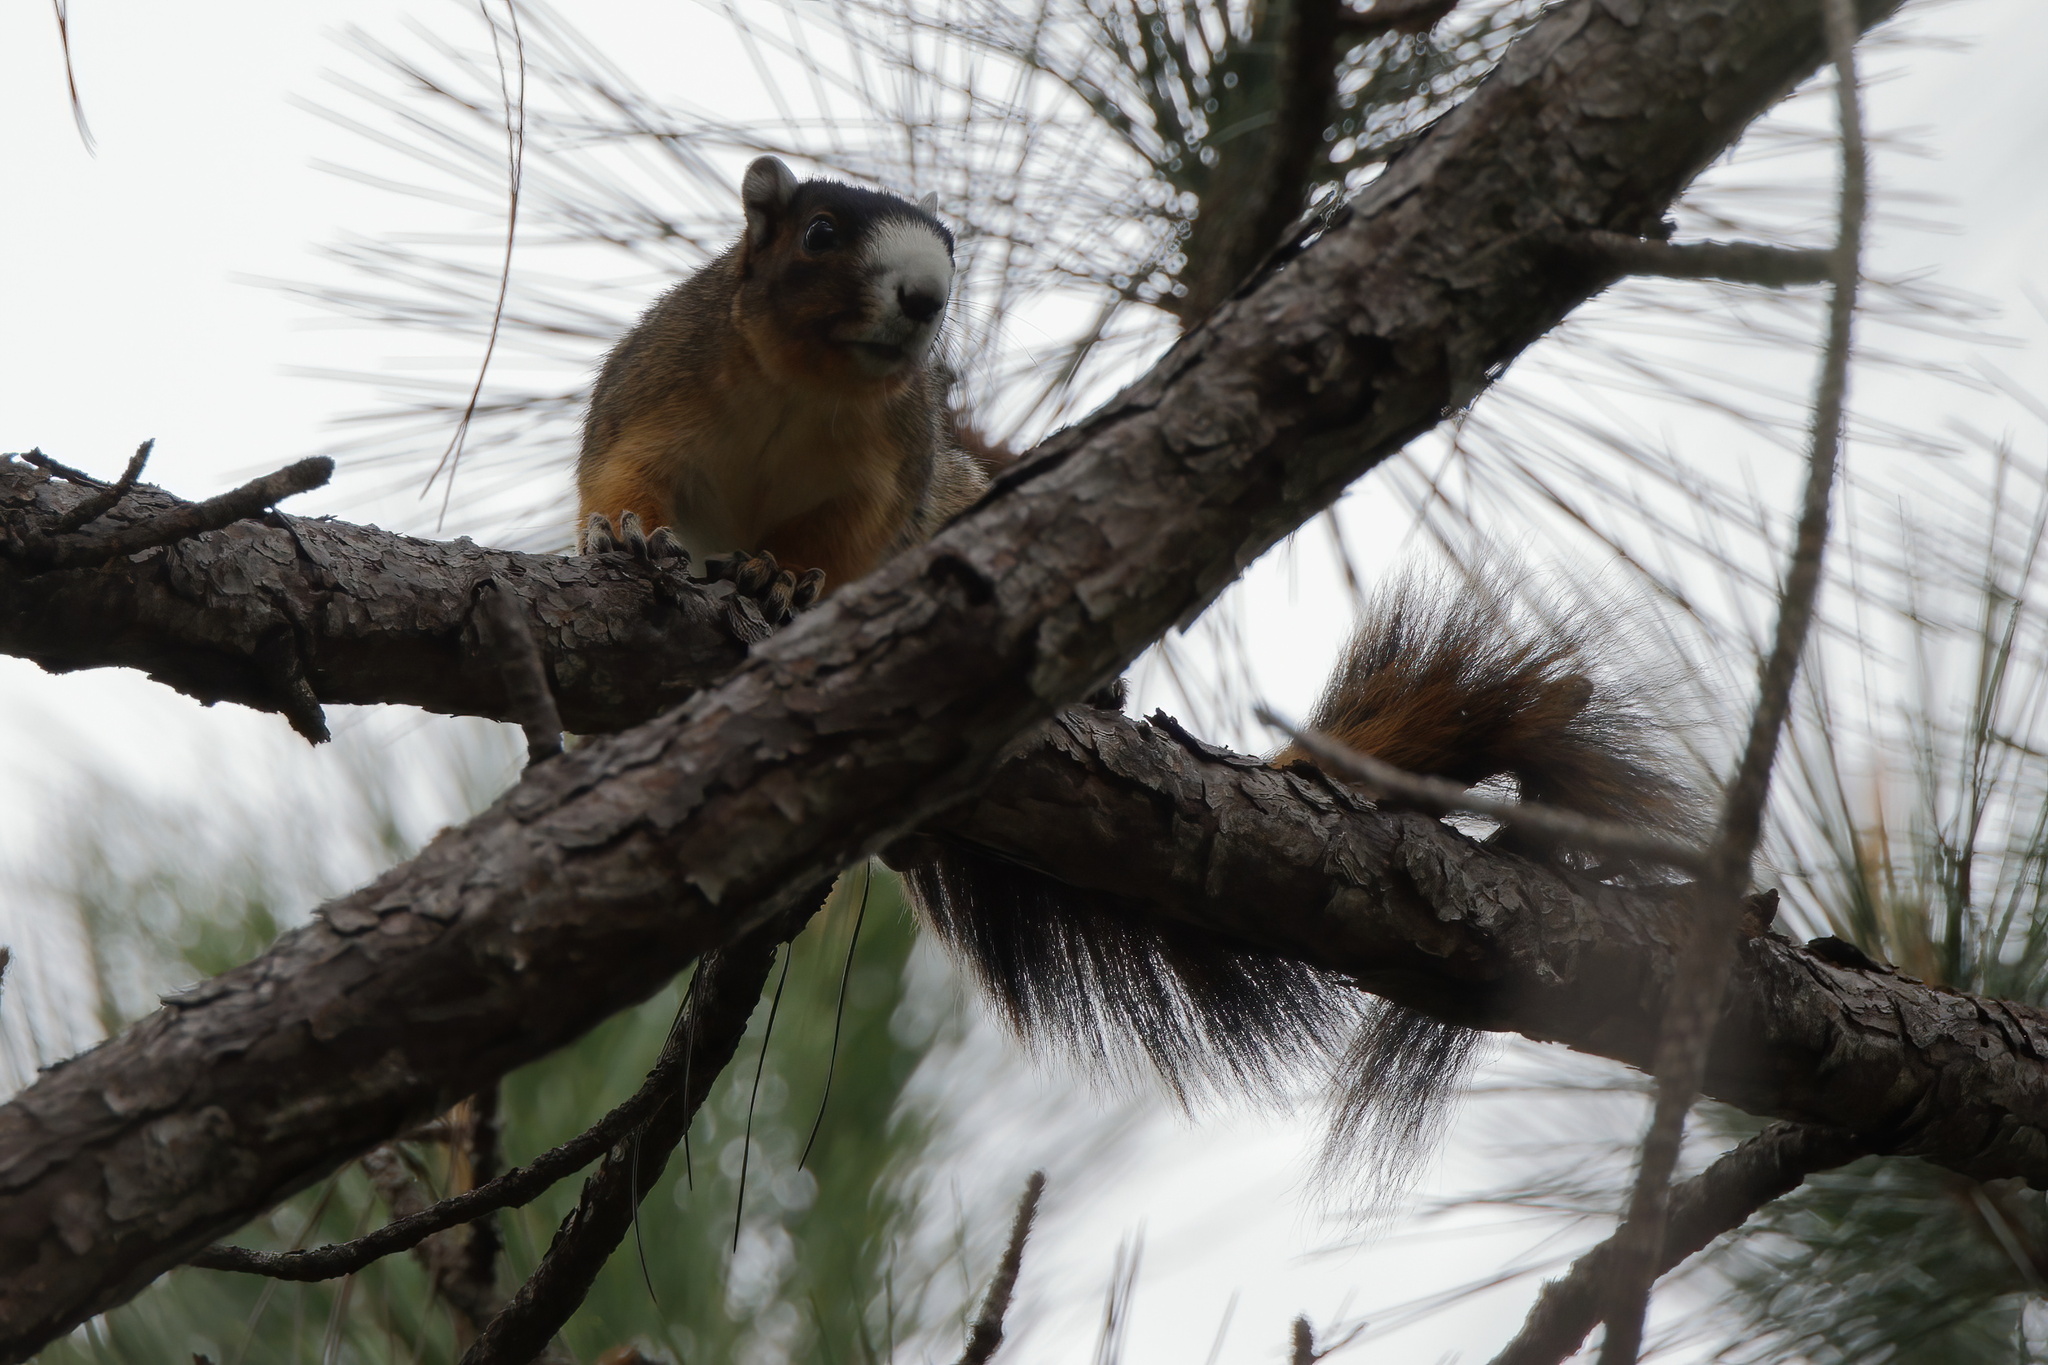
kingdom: Animalia
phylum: Chordata
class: Mammalia
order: Rodentia
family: Sciuridae
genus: Sciurus
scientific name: Sciurus niger
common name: Fox squirrel
